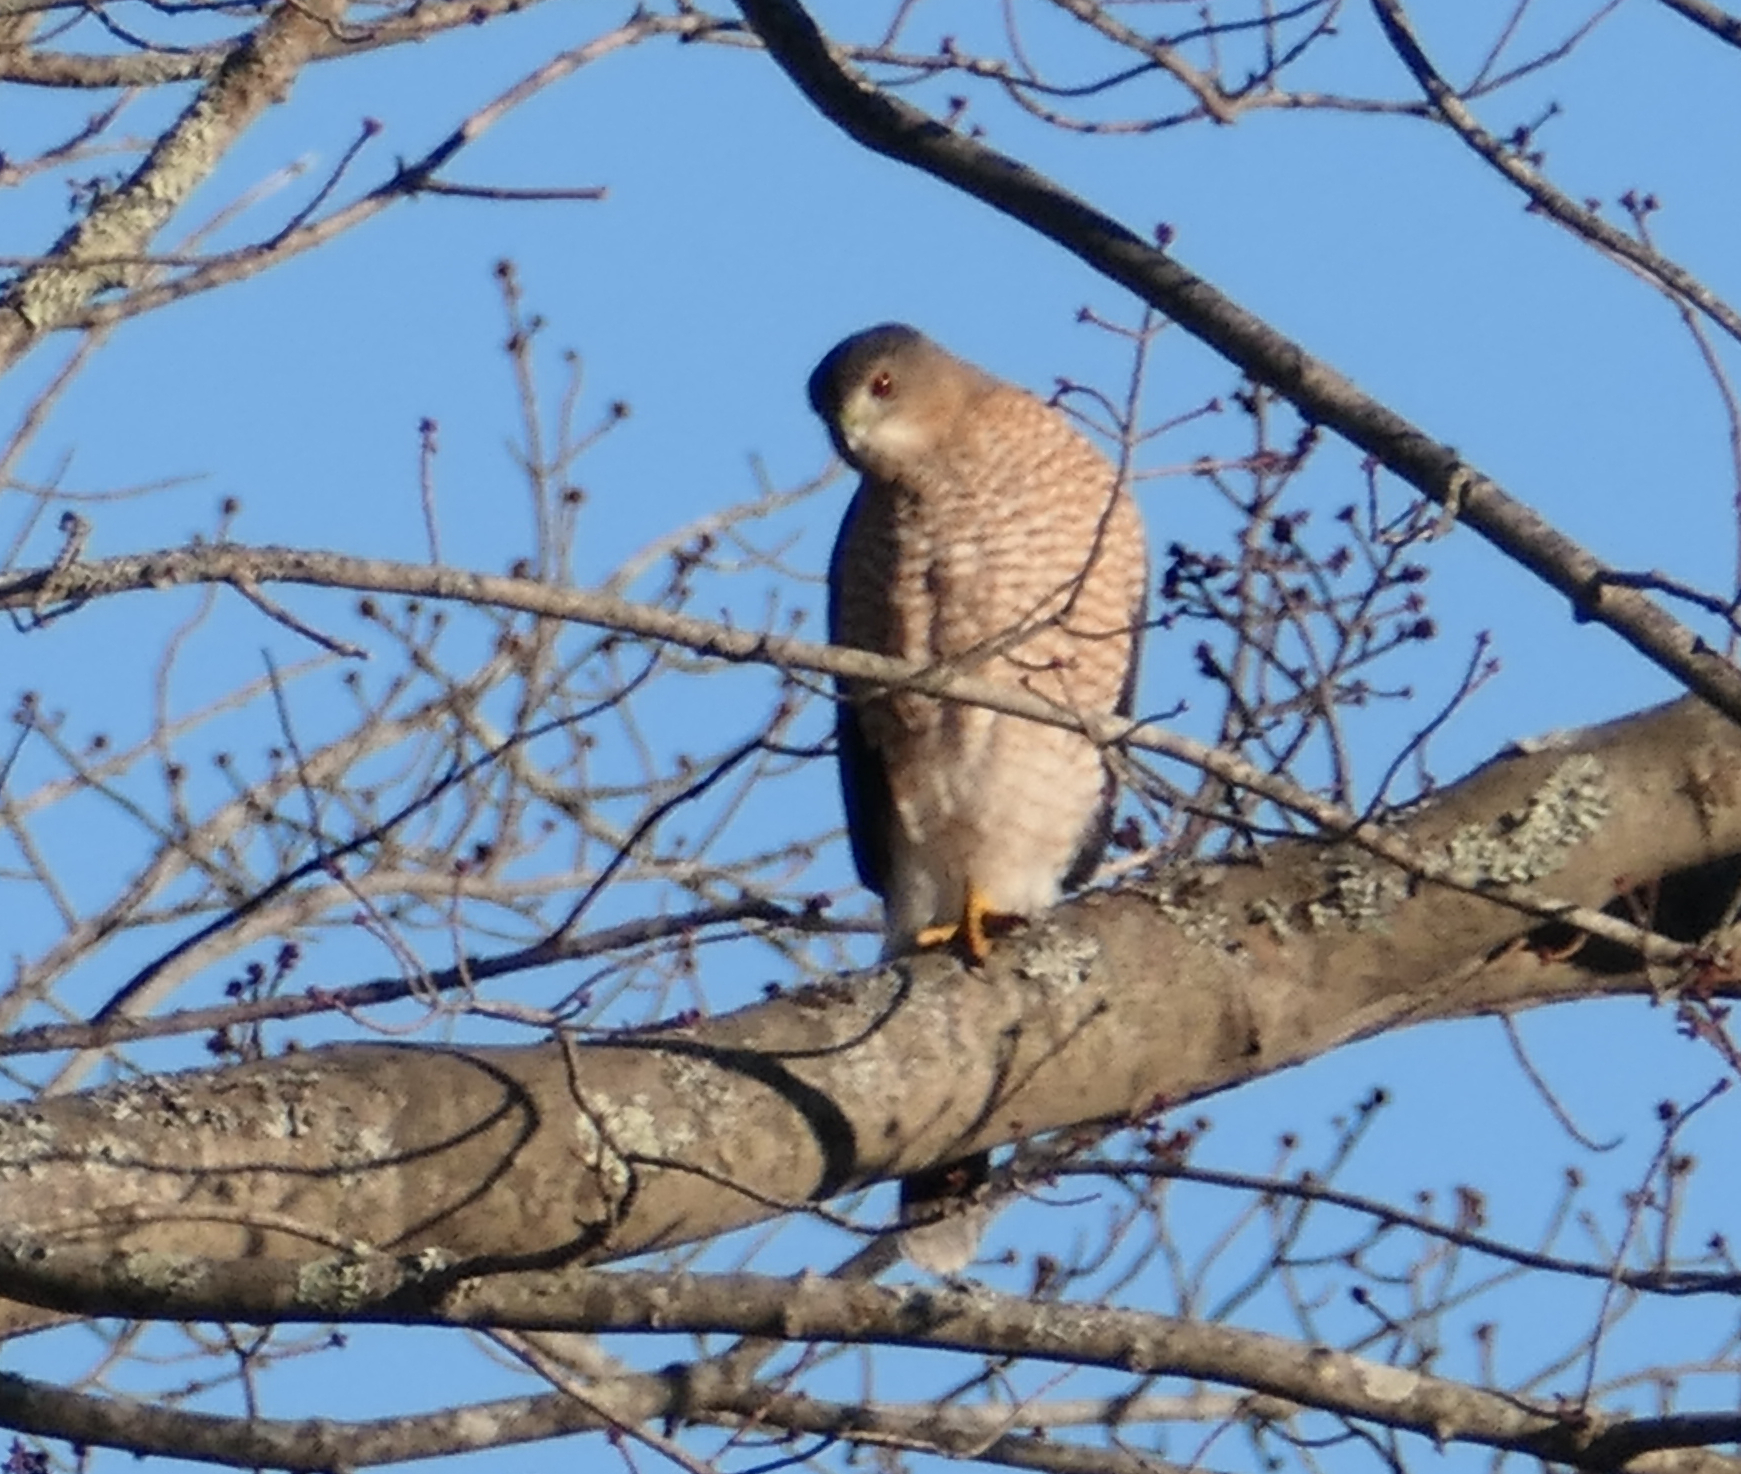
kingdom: Animalia
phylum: Chordata
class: Aves
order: Accipitriformes
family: Accipitridae
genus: Accipiter
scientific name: Accipiter cooperii
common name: Cooper's hawk
